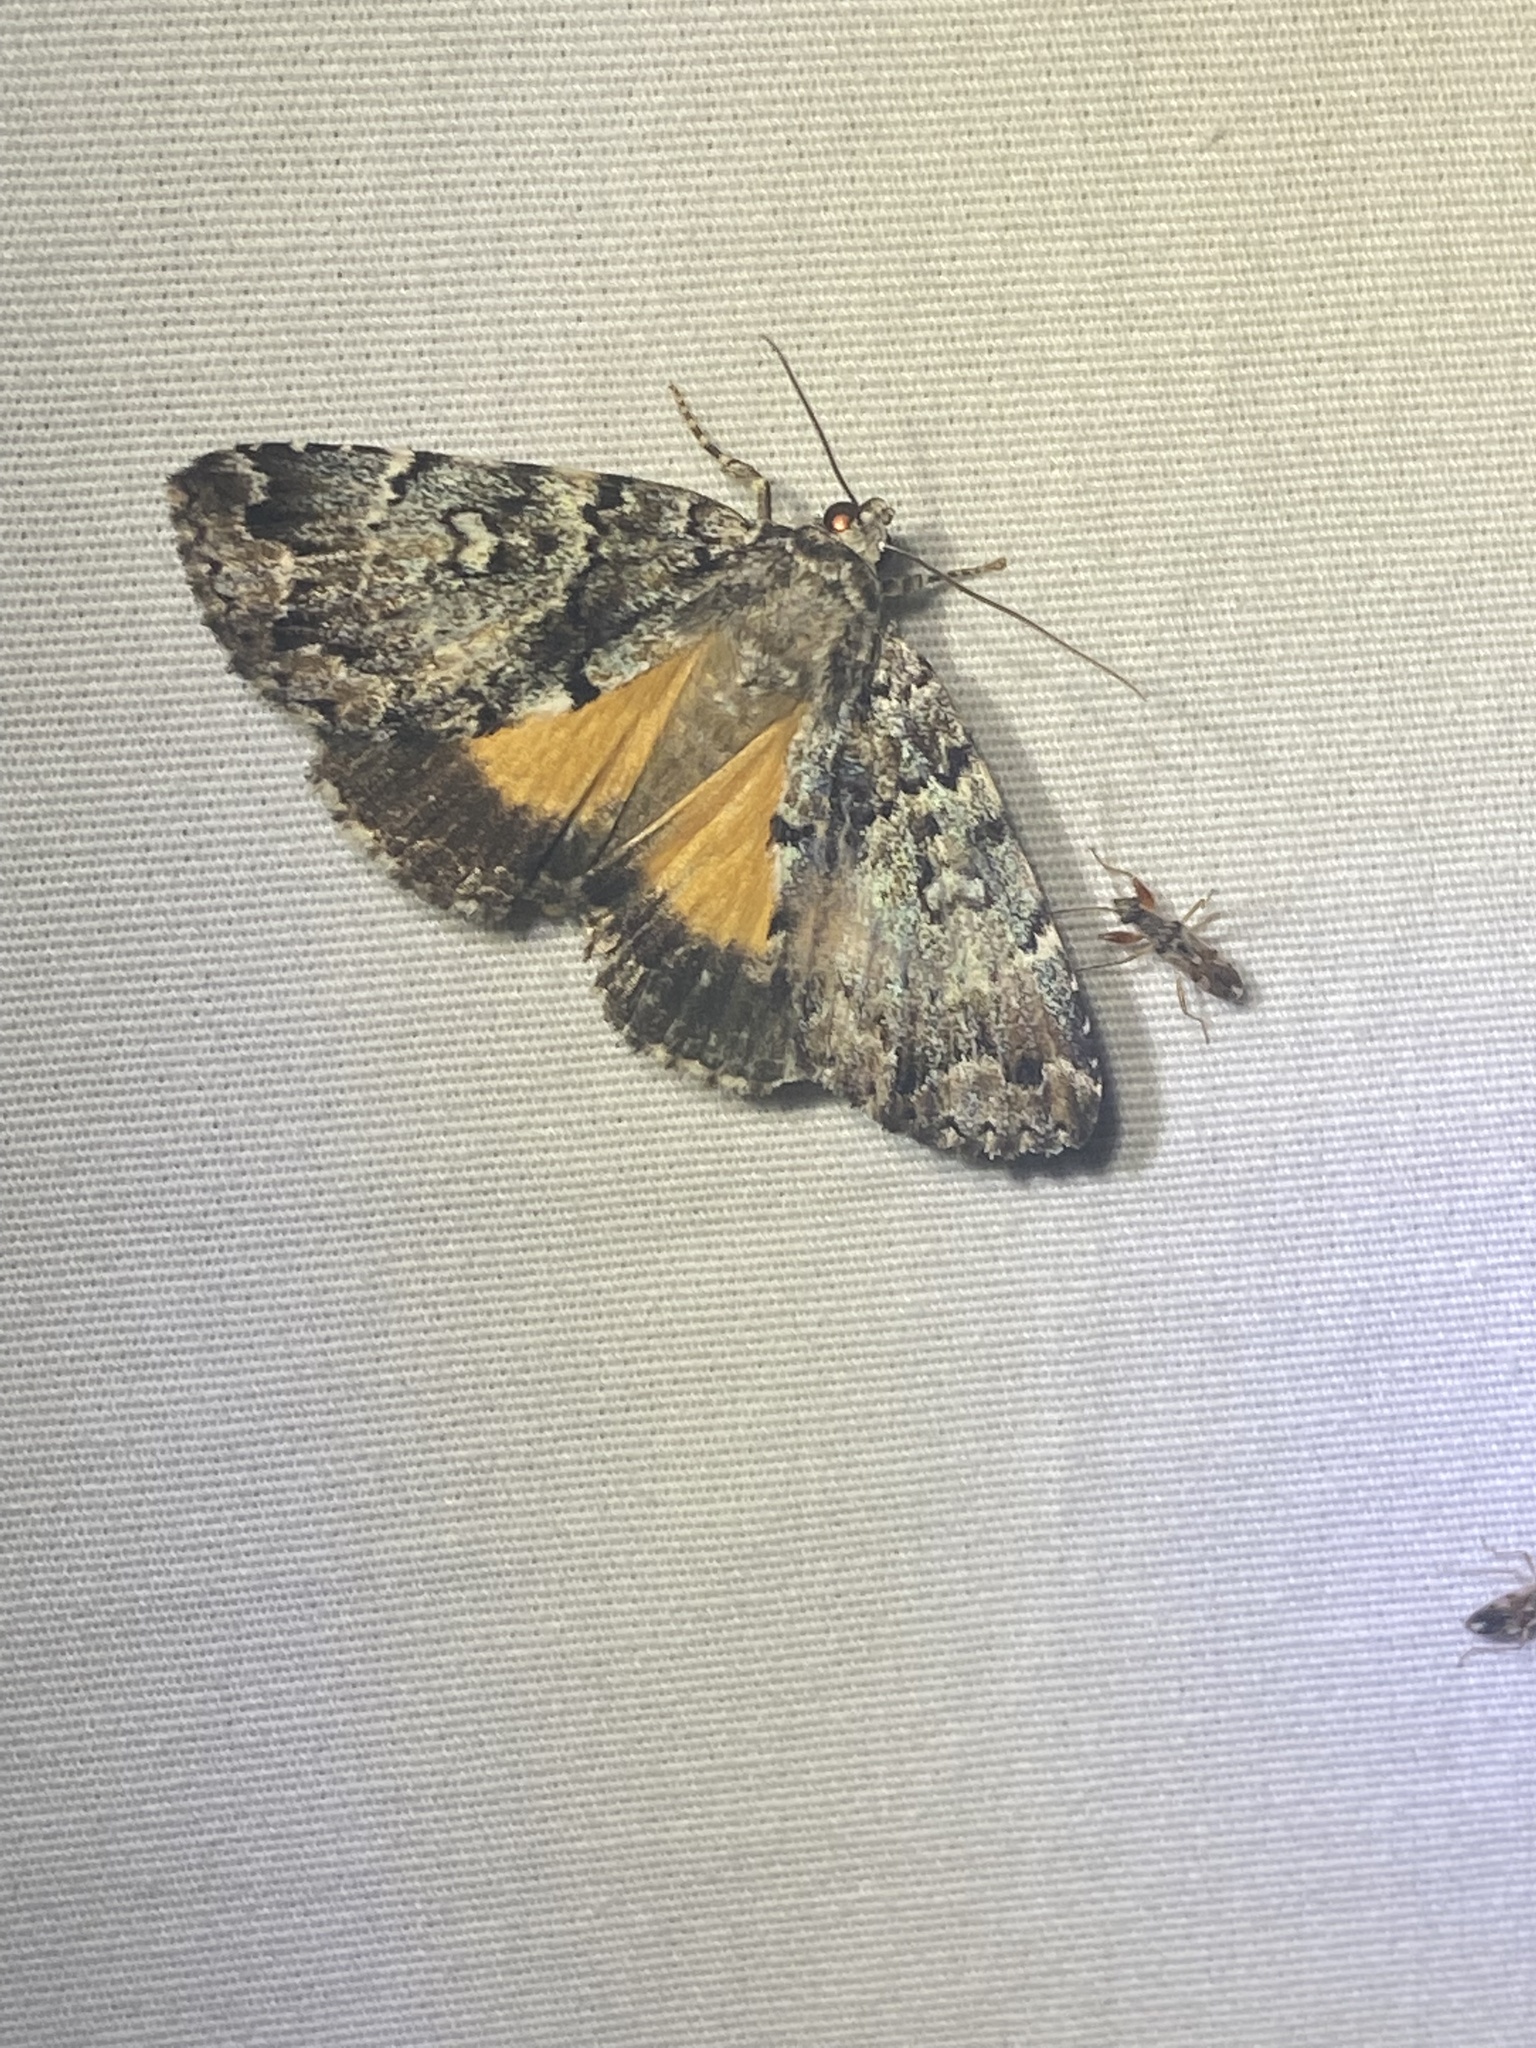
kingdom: Animalia
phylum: Arthropoda
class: Insecta
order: Lepidoptera
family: Erebidae
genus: Allotria
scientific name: Allotria elonympha
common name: False underwing
